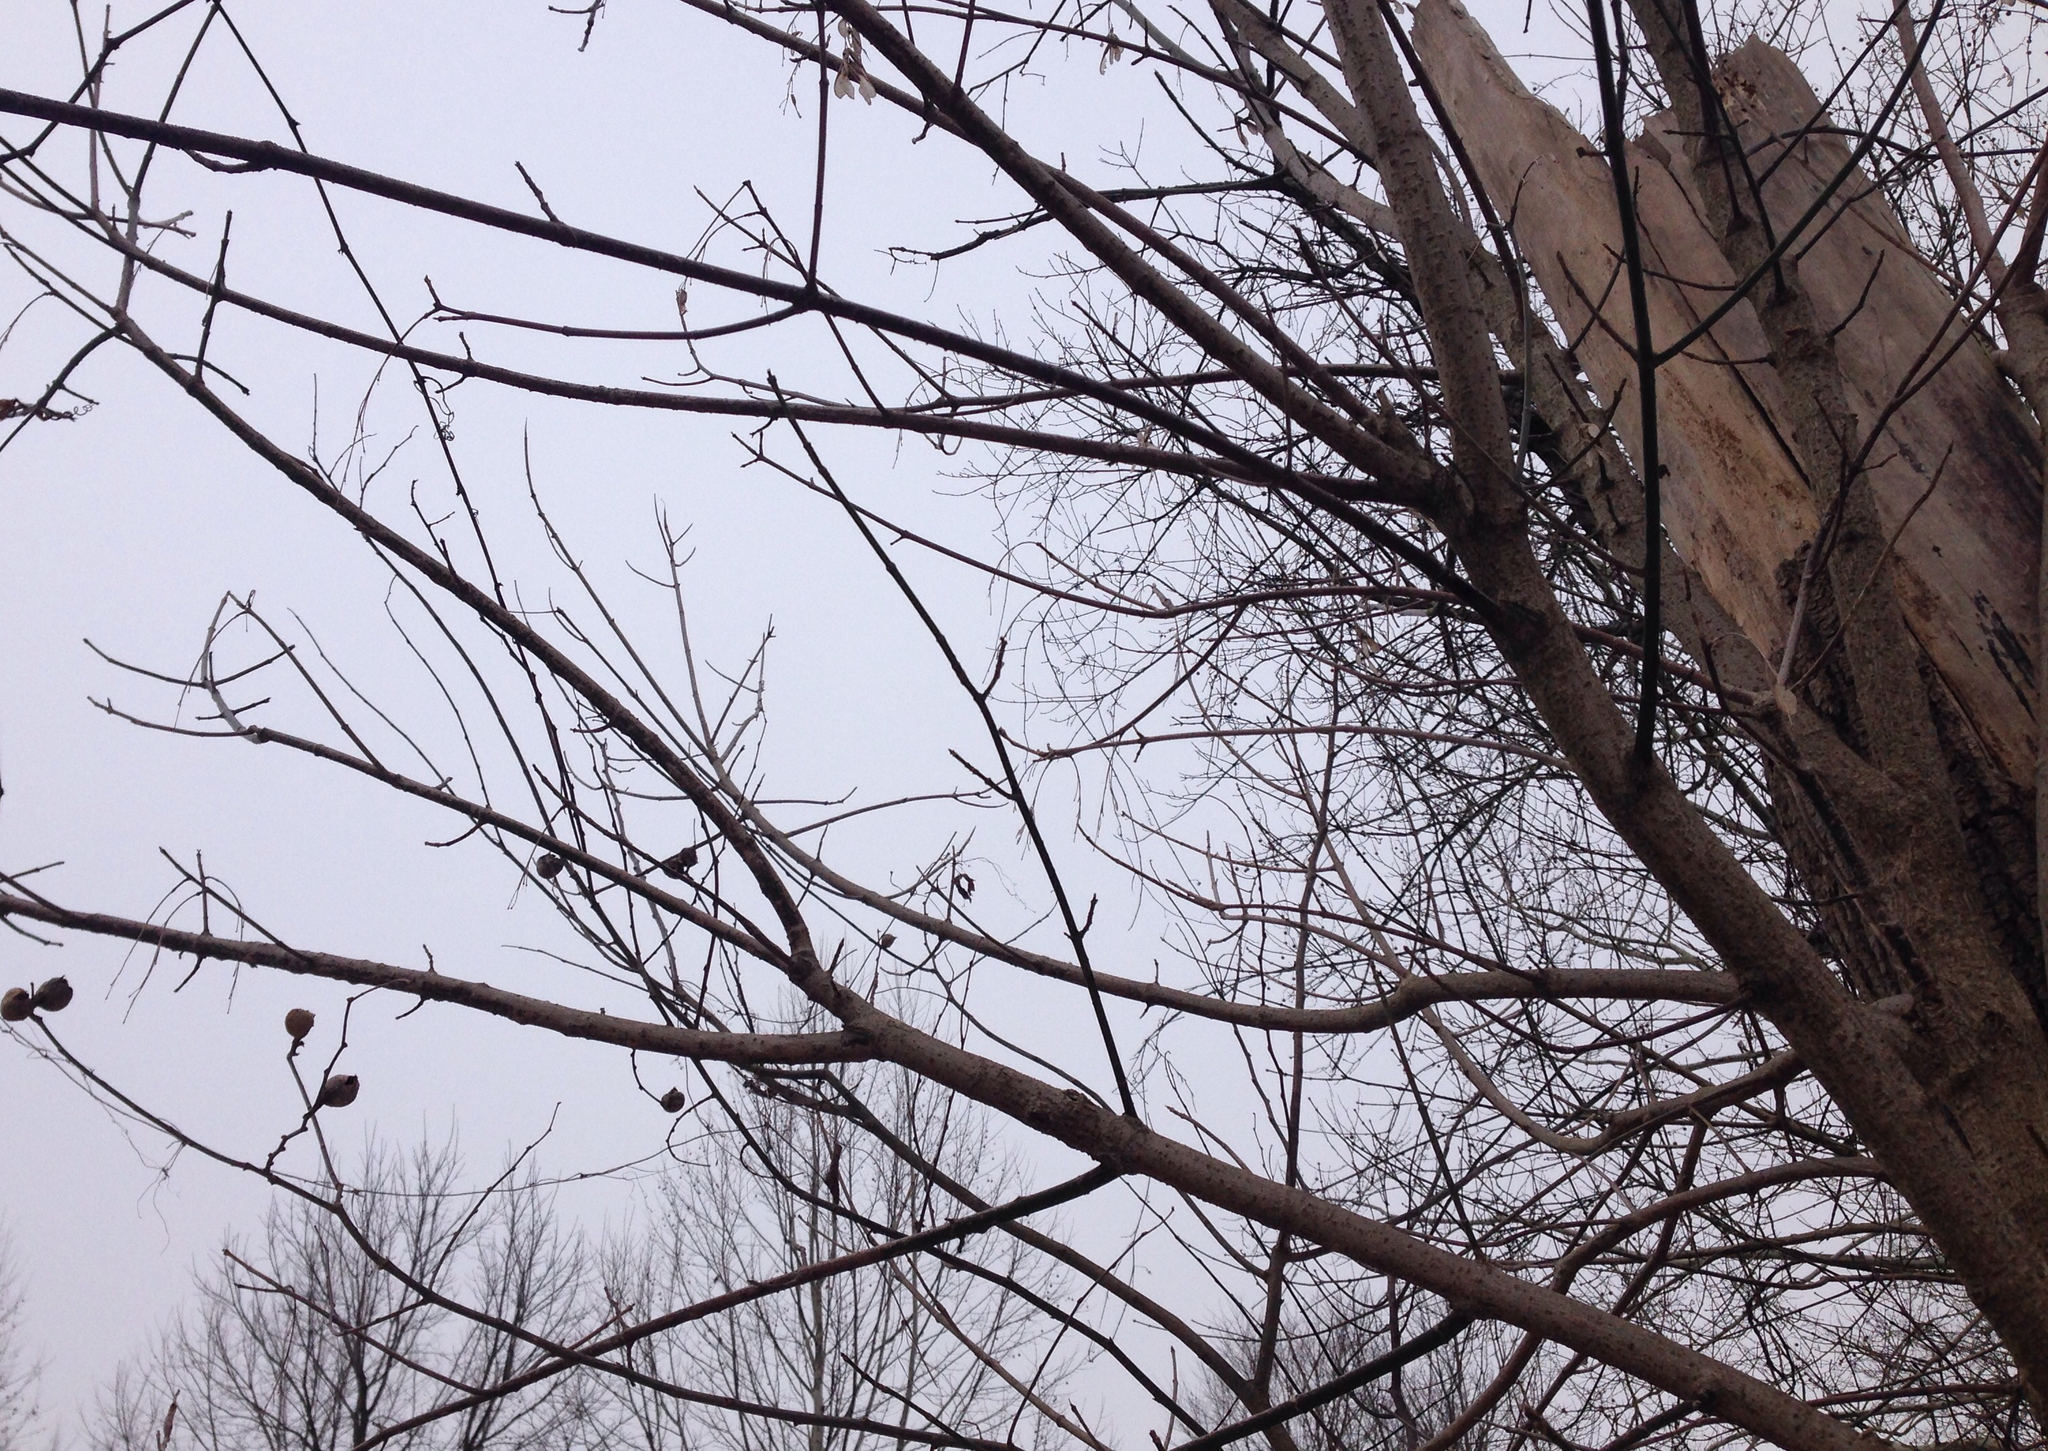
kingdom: Plantae
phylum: Tracheophyta
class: Magnoliopsida
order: Rosales
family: Cannabaceae
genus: Celtis
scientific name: Celtis occidentalis
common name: Common hackberry
